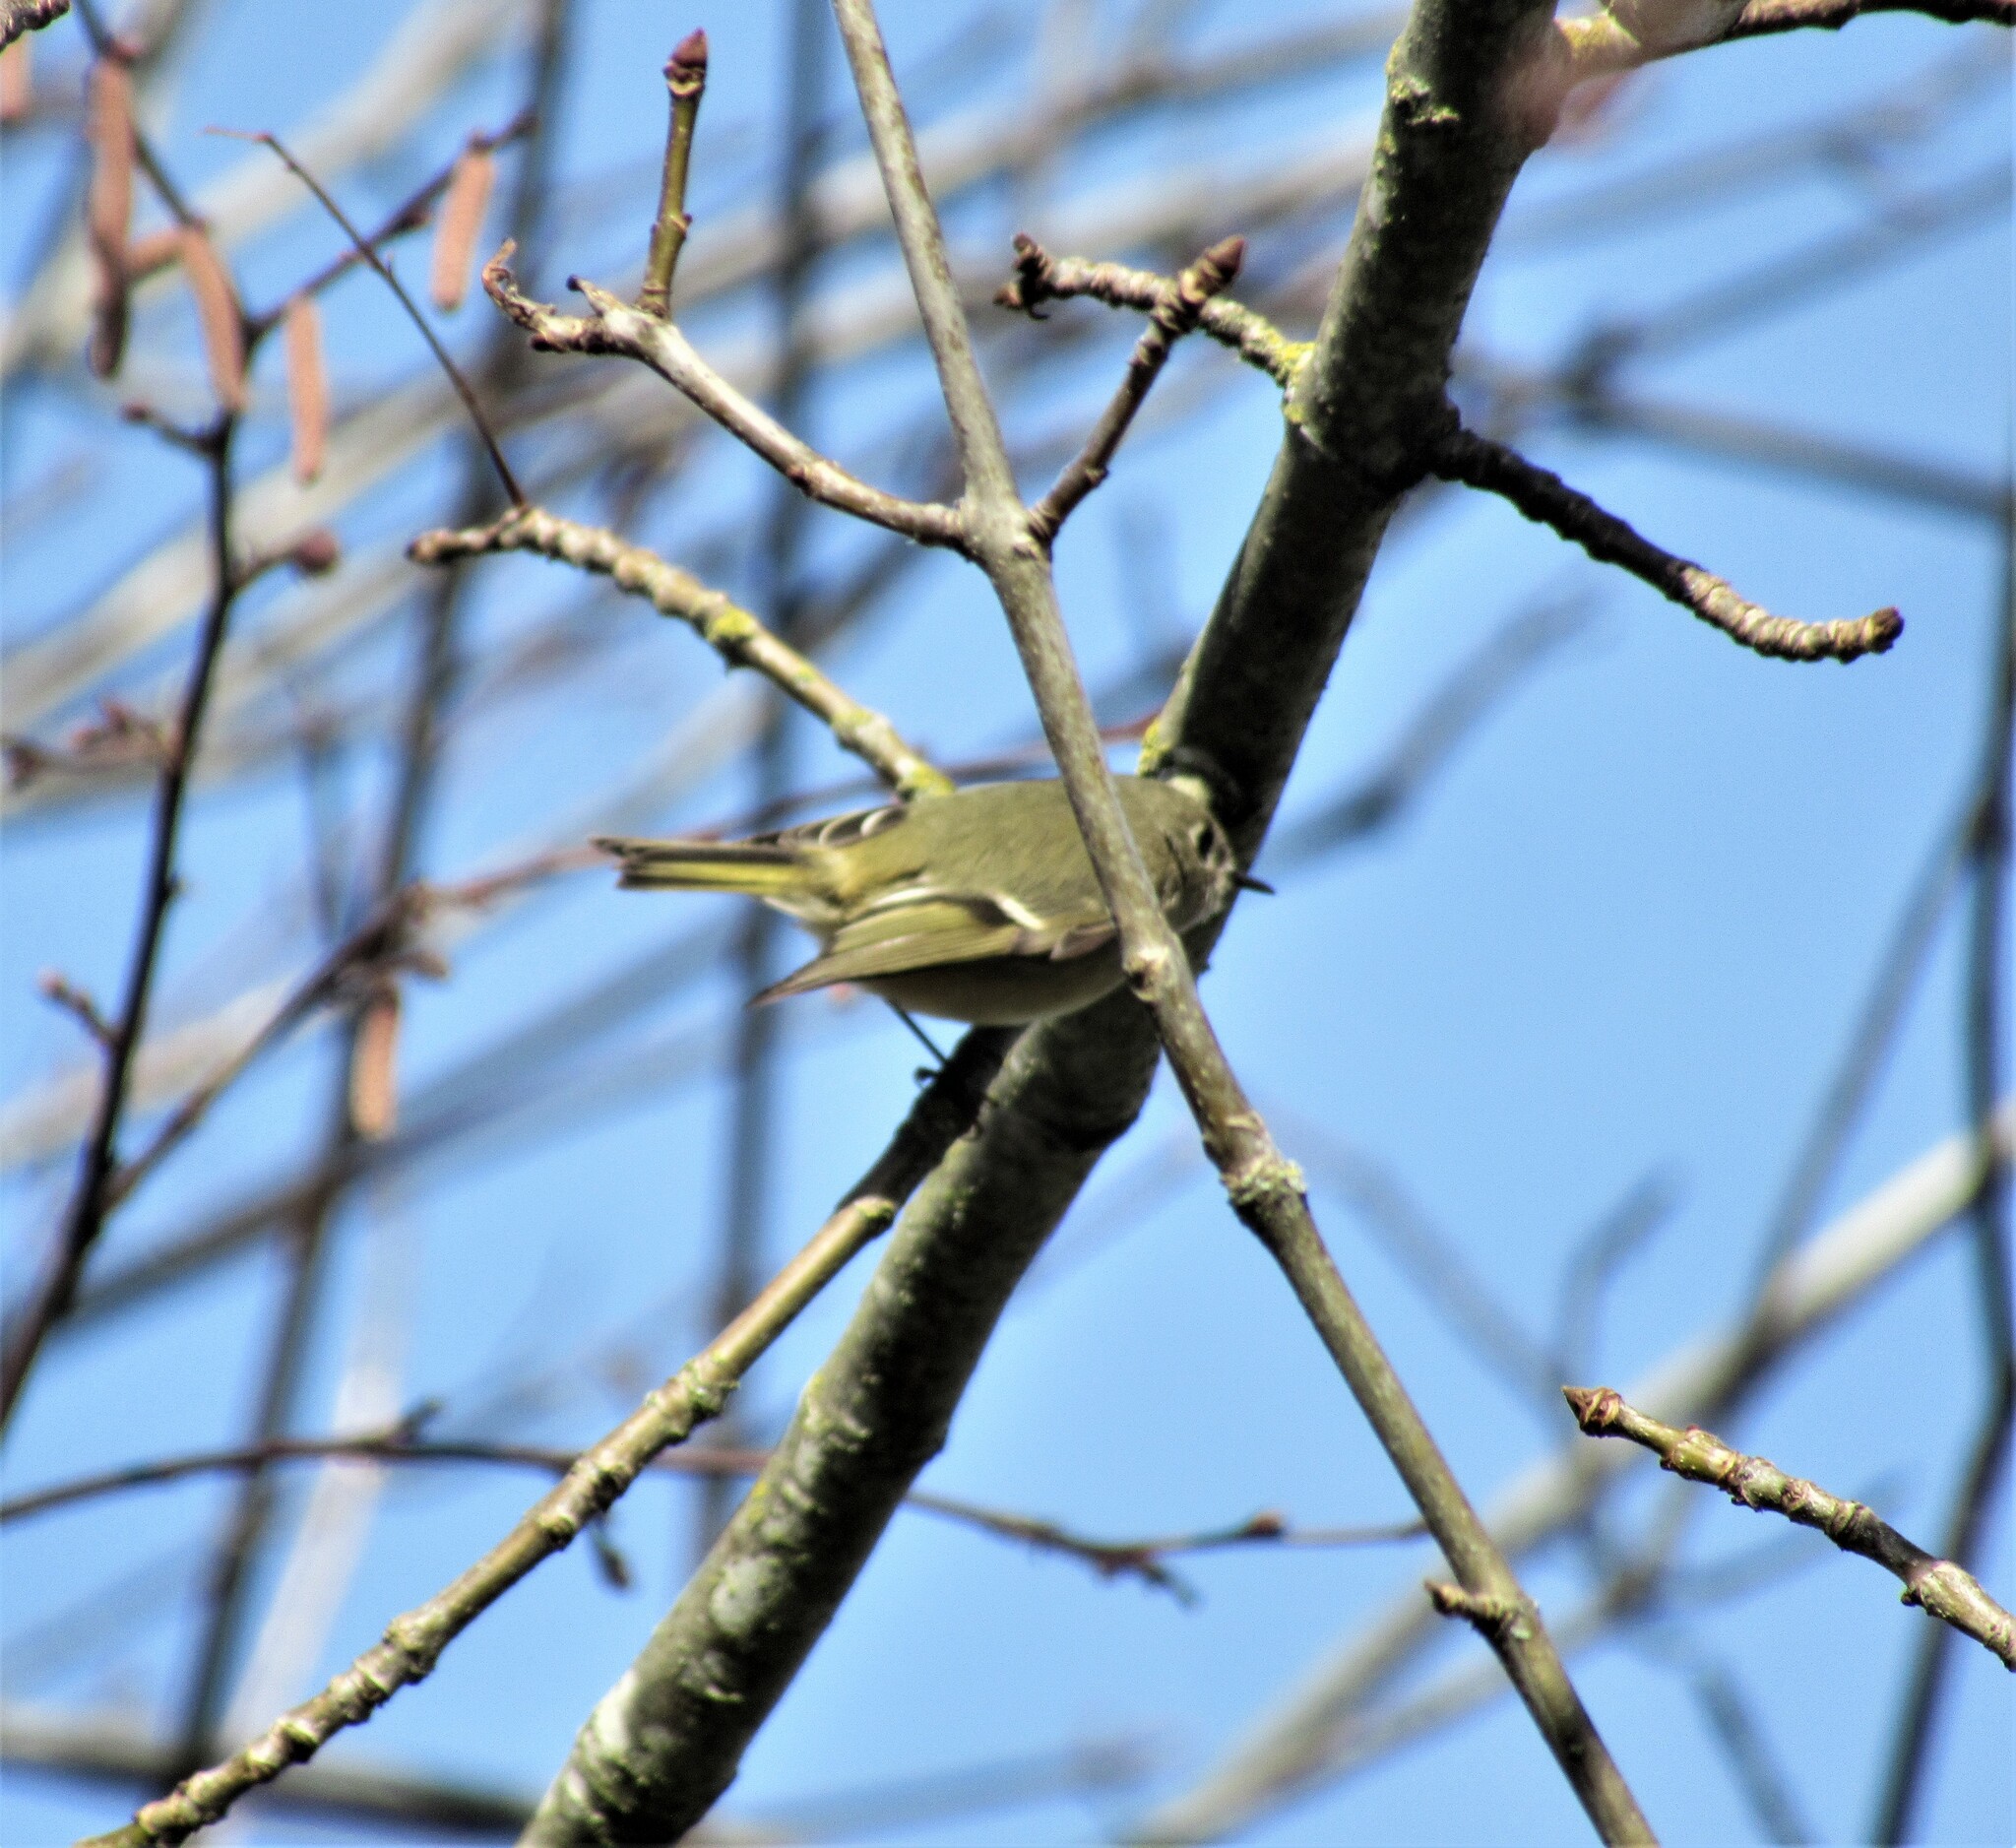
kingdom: Animalia
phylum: Chordata
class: Aves
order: Passeriformes
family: Regulidae
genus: Regulus
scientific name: Regulus calendula
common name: Ruby-crowned kinglet
